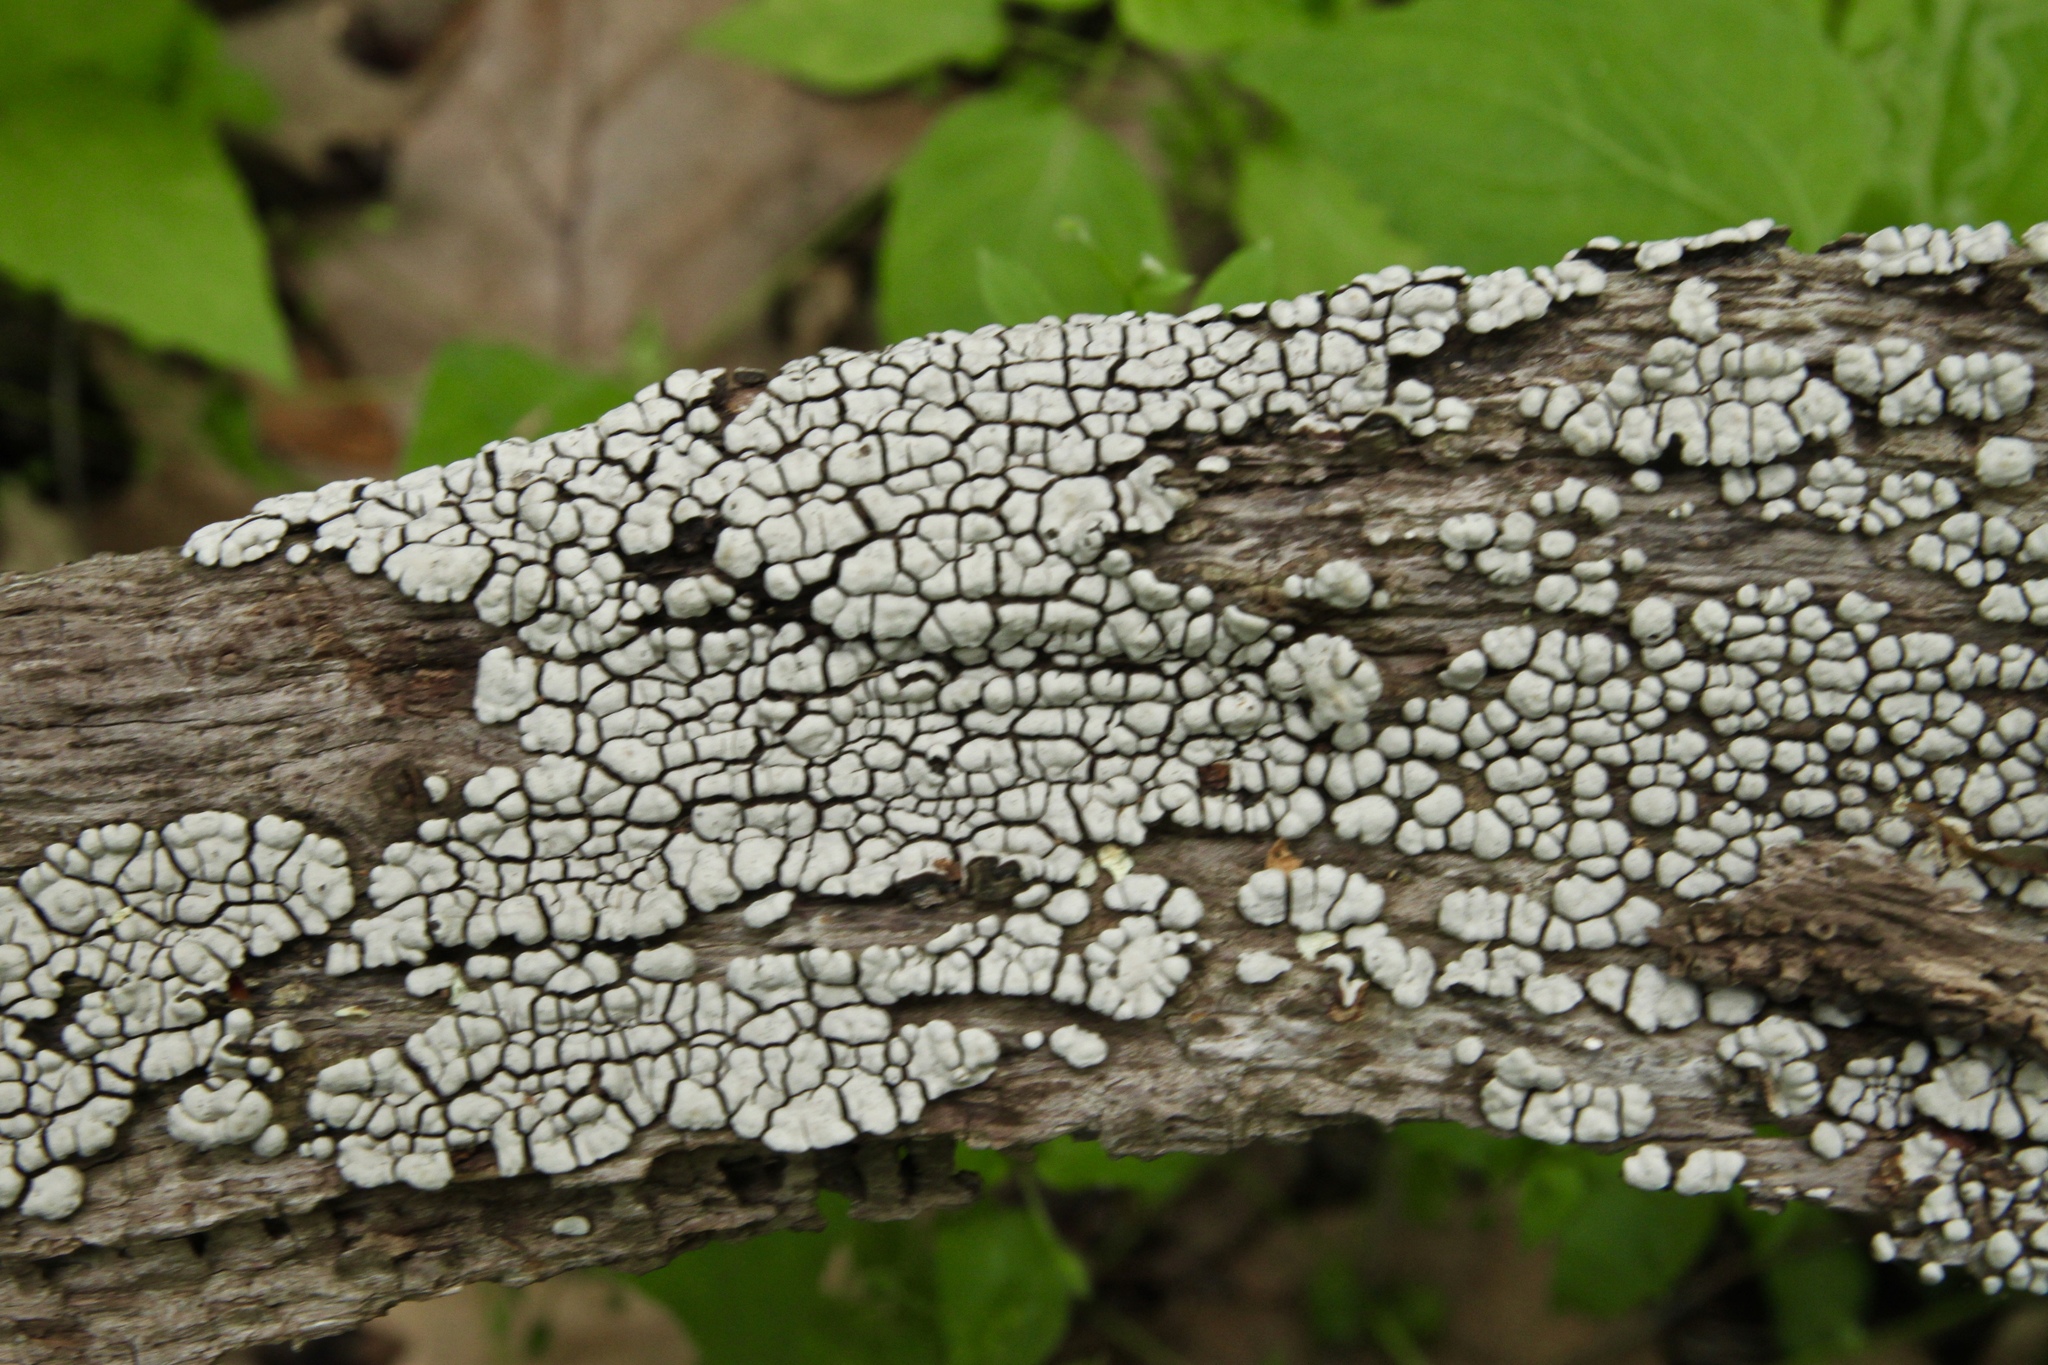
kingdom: Fungi
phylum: Basidiomycota
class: Agaricomycetes
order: Russulales
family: Stereaceae
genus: Xylobolus
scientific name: Xylobolus frustulatus
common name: Ceramic parchment
